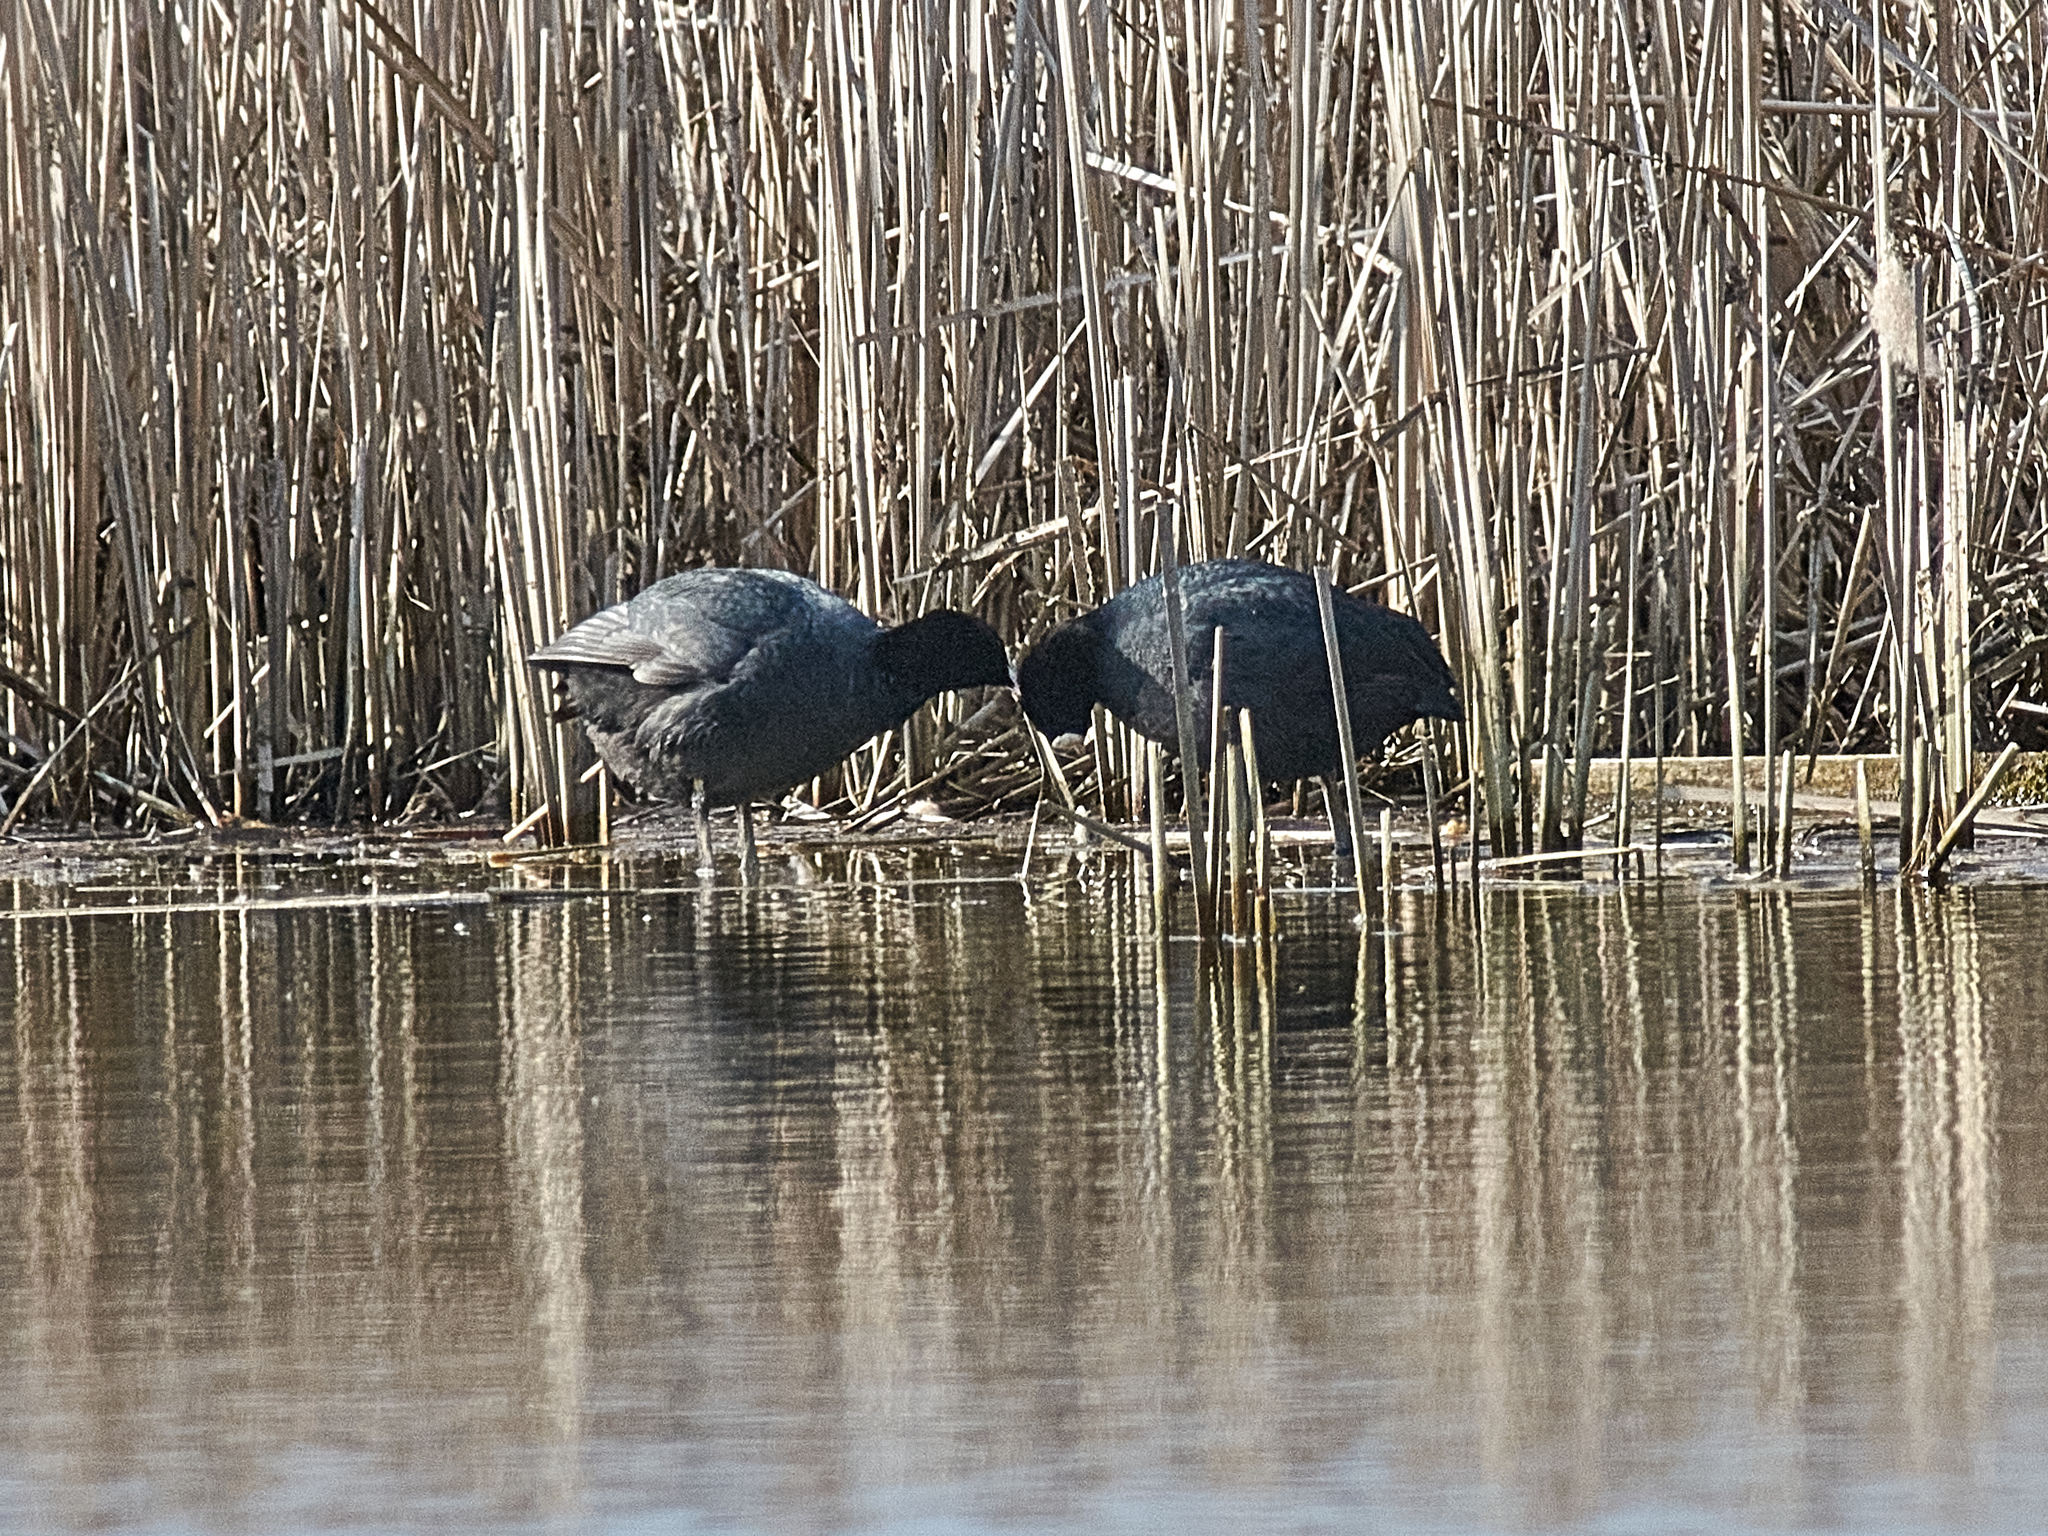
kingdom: Animalia
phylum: Chordata
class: Aves
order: Gruiformes
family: Rallidae
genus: Fulica
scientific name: Fulica atra
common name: Eurasian coot
